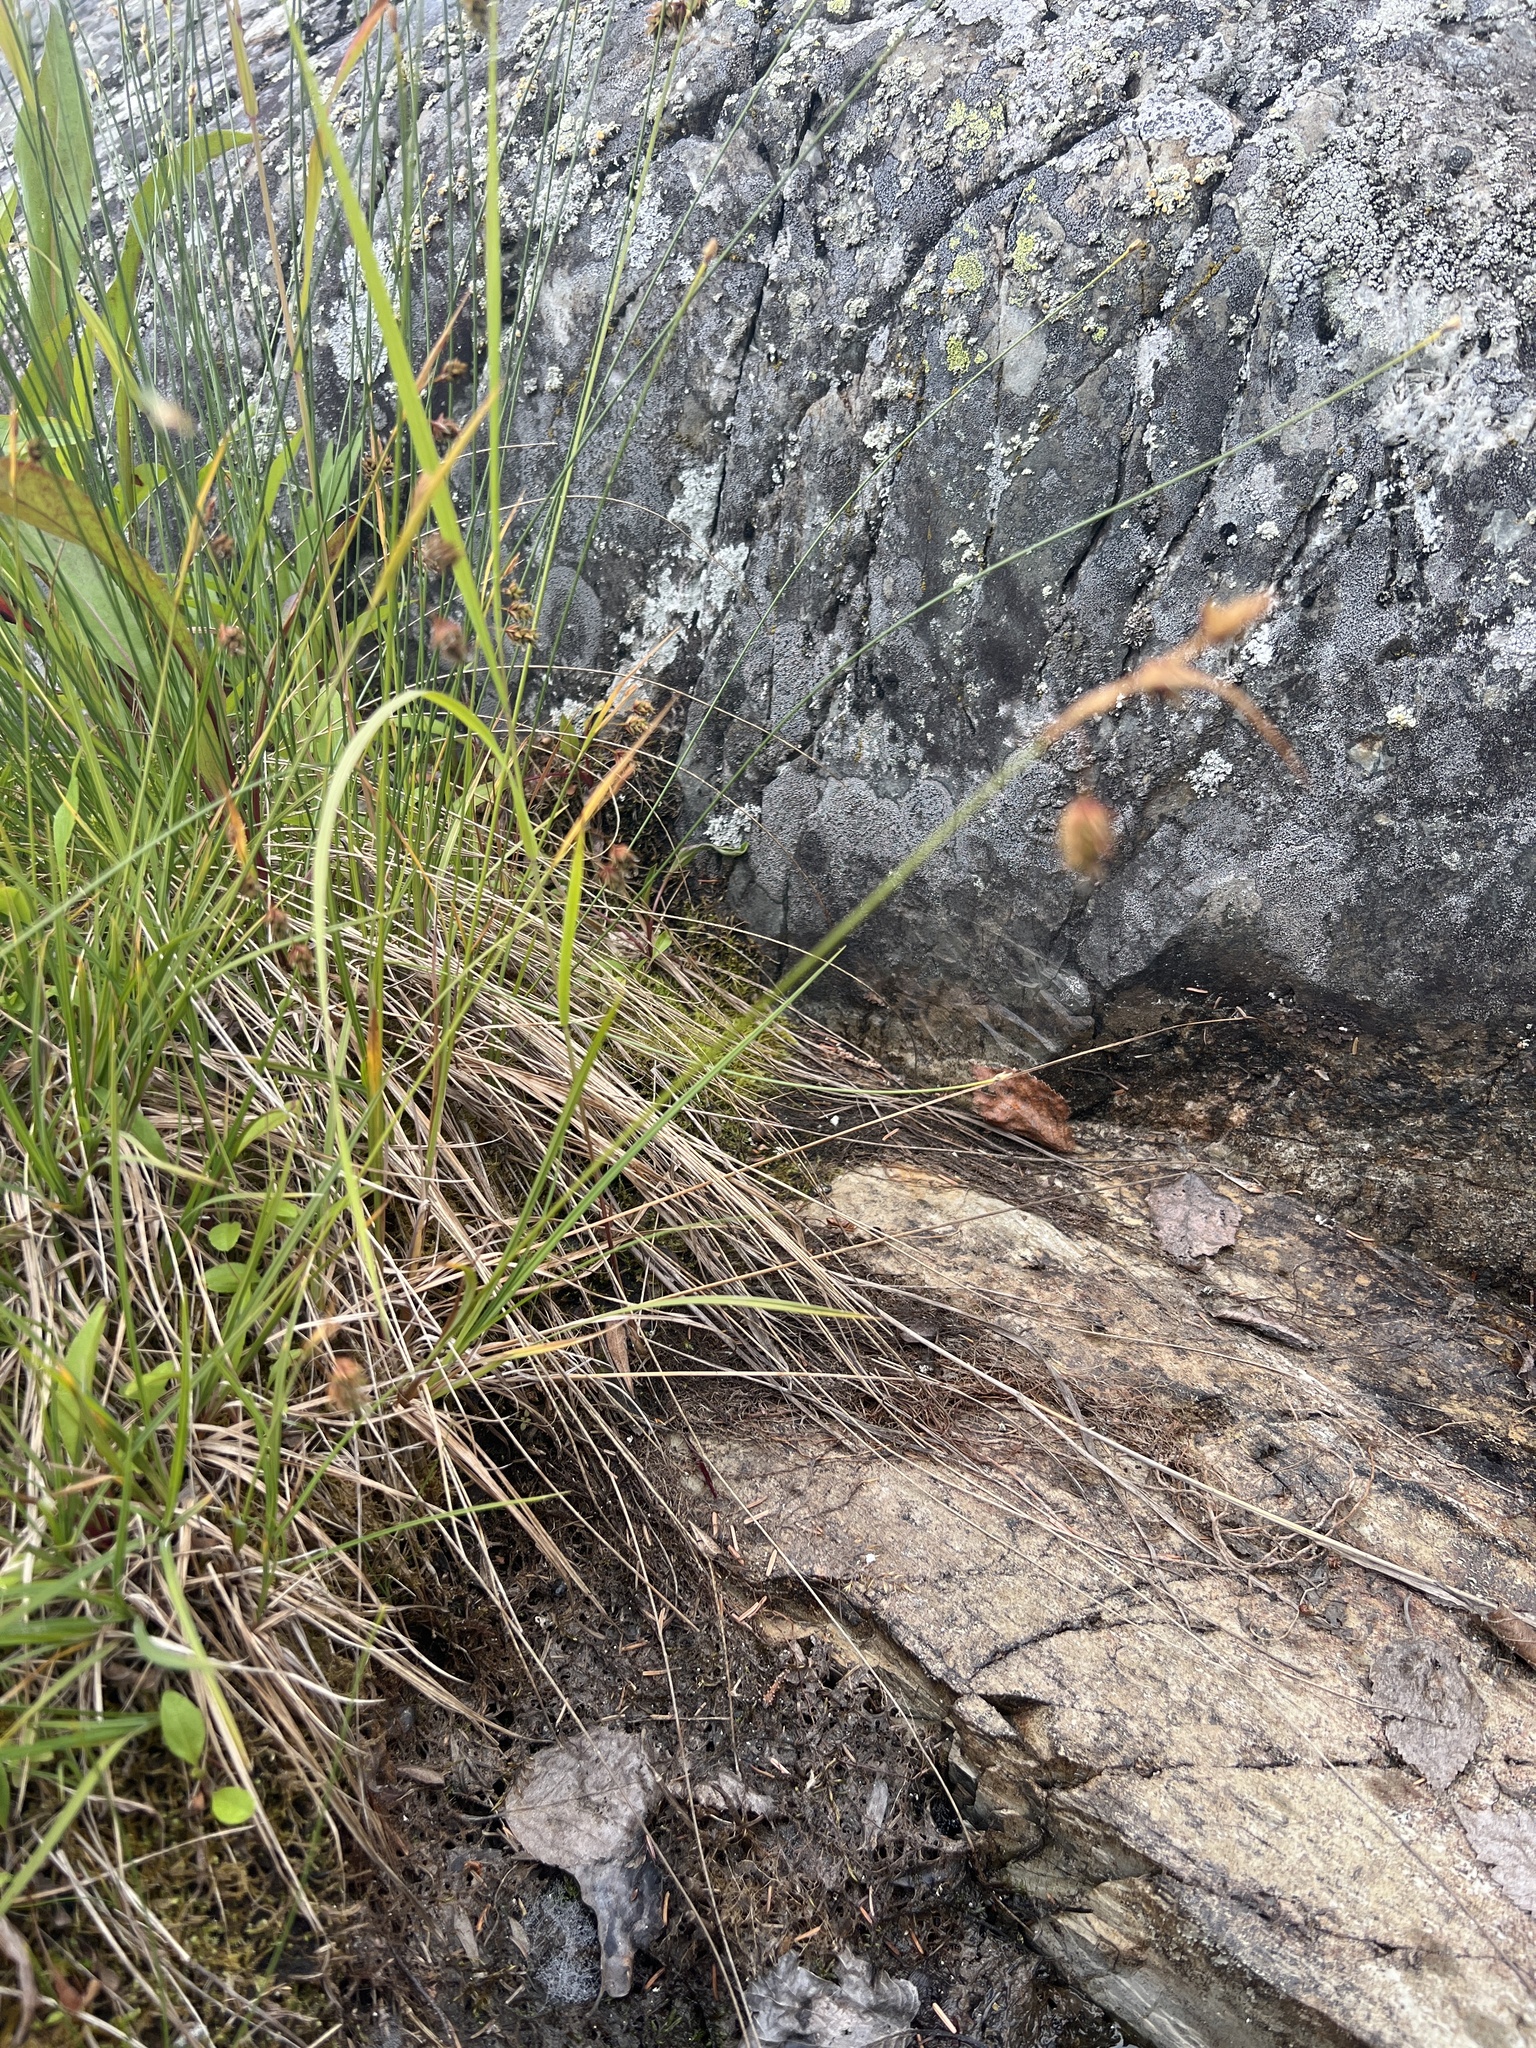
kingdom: Plantae
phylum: Tracheophyta
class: Liliopsida
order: Poales
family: Cyperaceae
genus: Carex
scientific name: Carex magellanica
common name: Bog sedge
